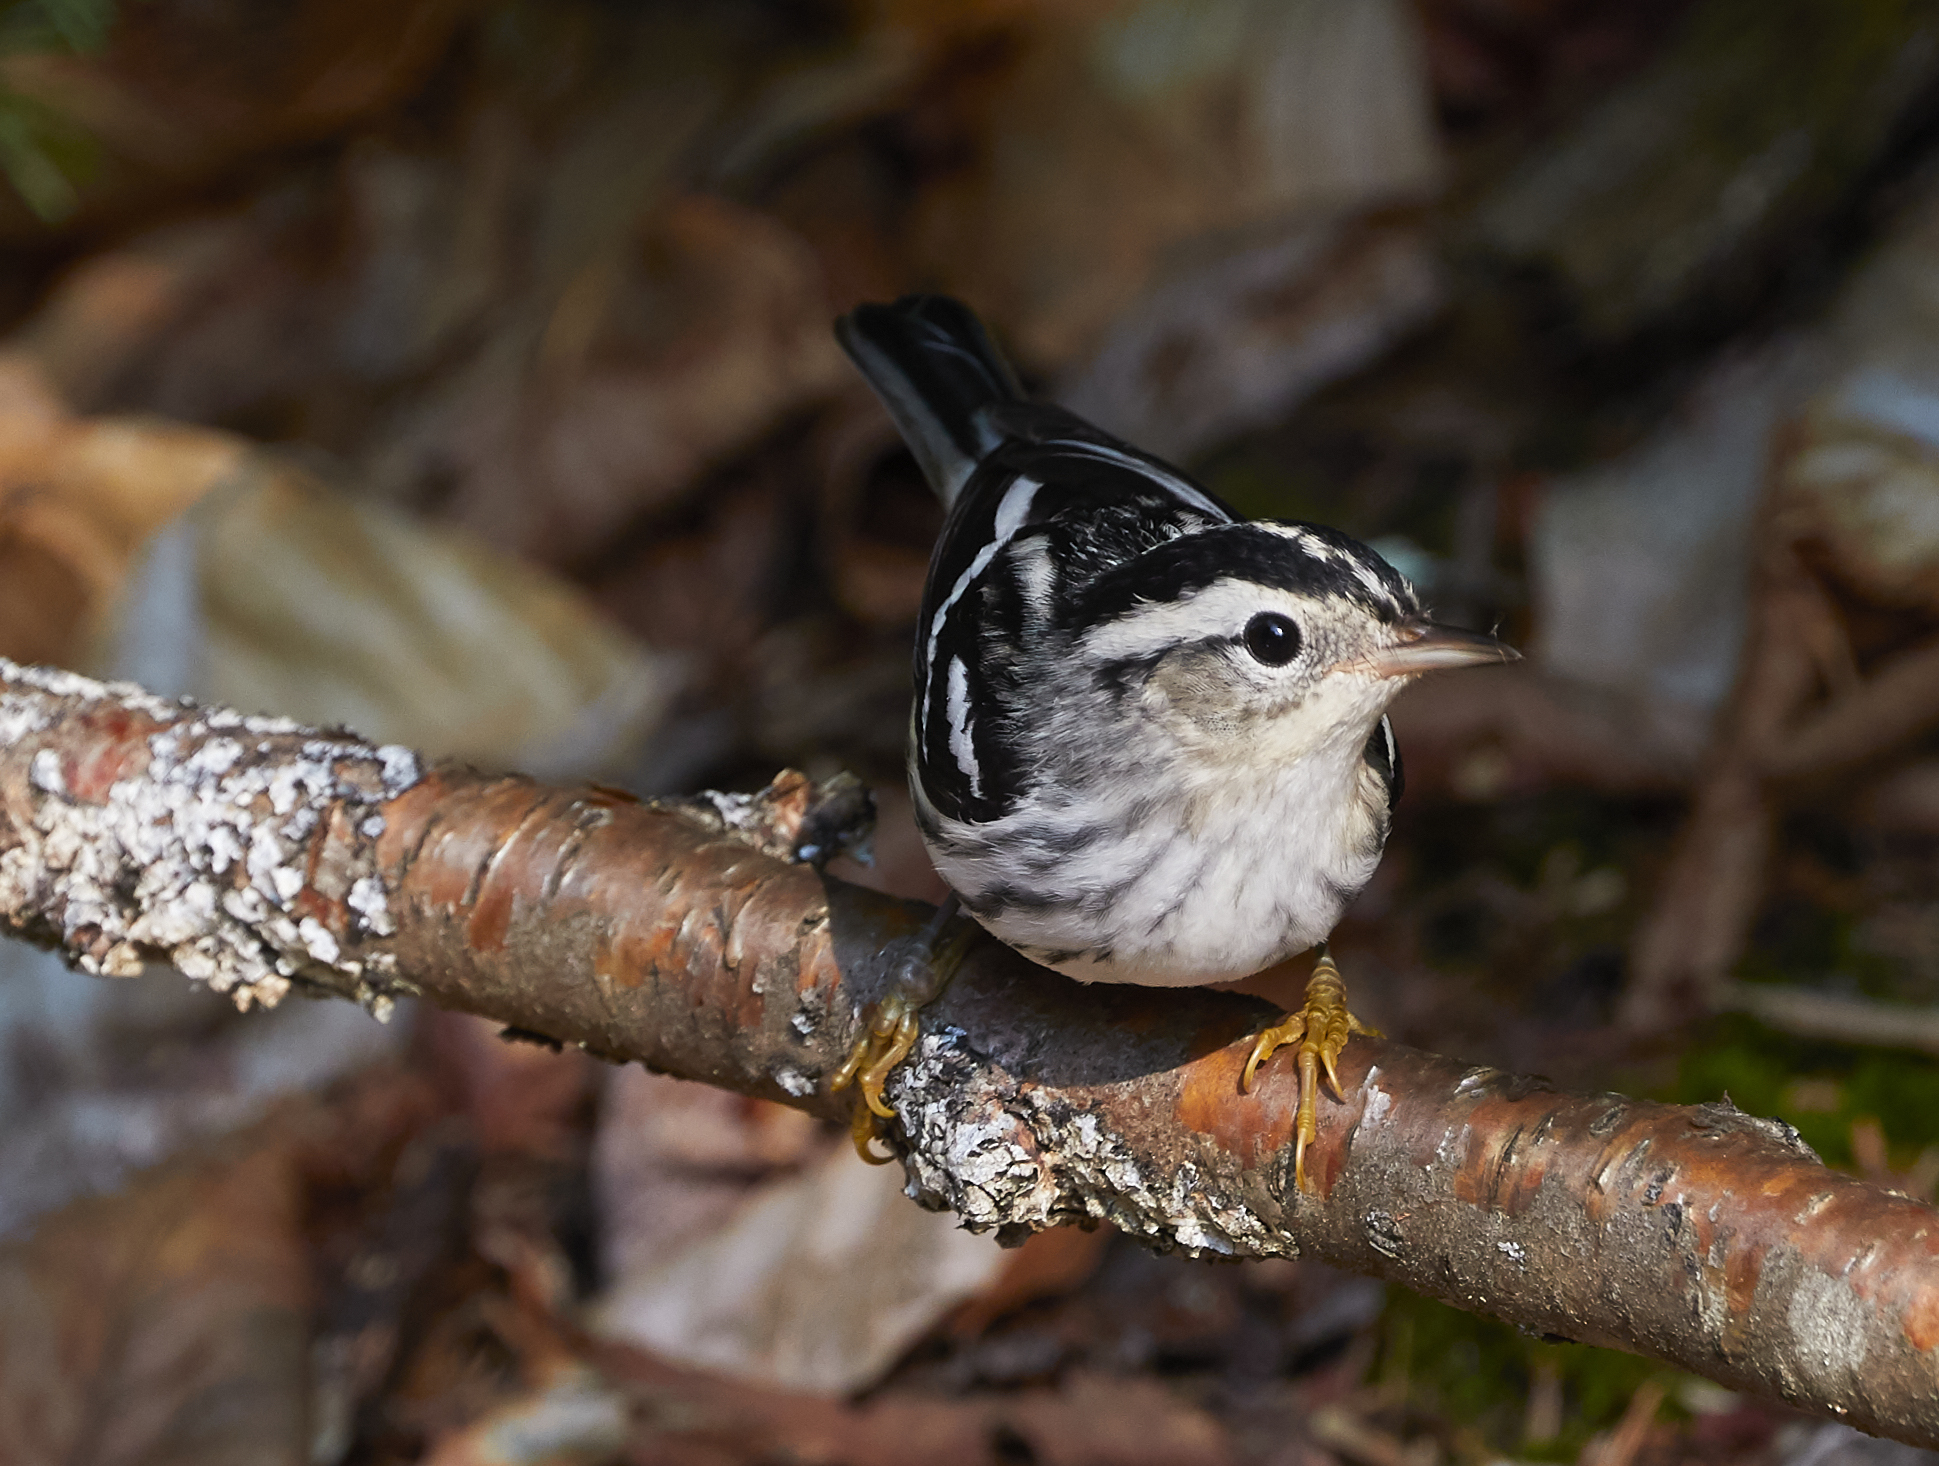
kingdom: Animalia
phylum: Chordata
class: Aves
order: Passeriformes
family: Parulidae
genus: Mniotilta
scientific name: Mniotilta varia
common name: Black-and-white warbler
